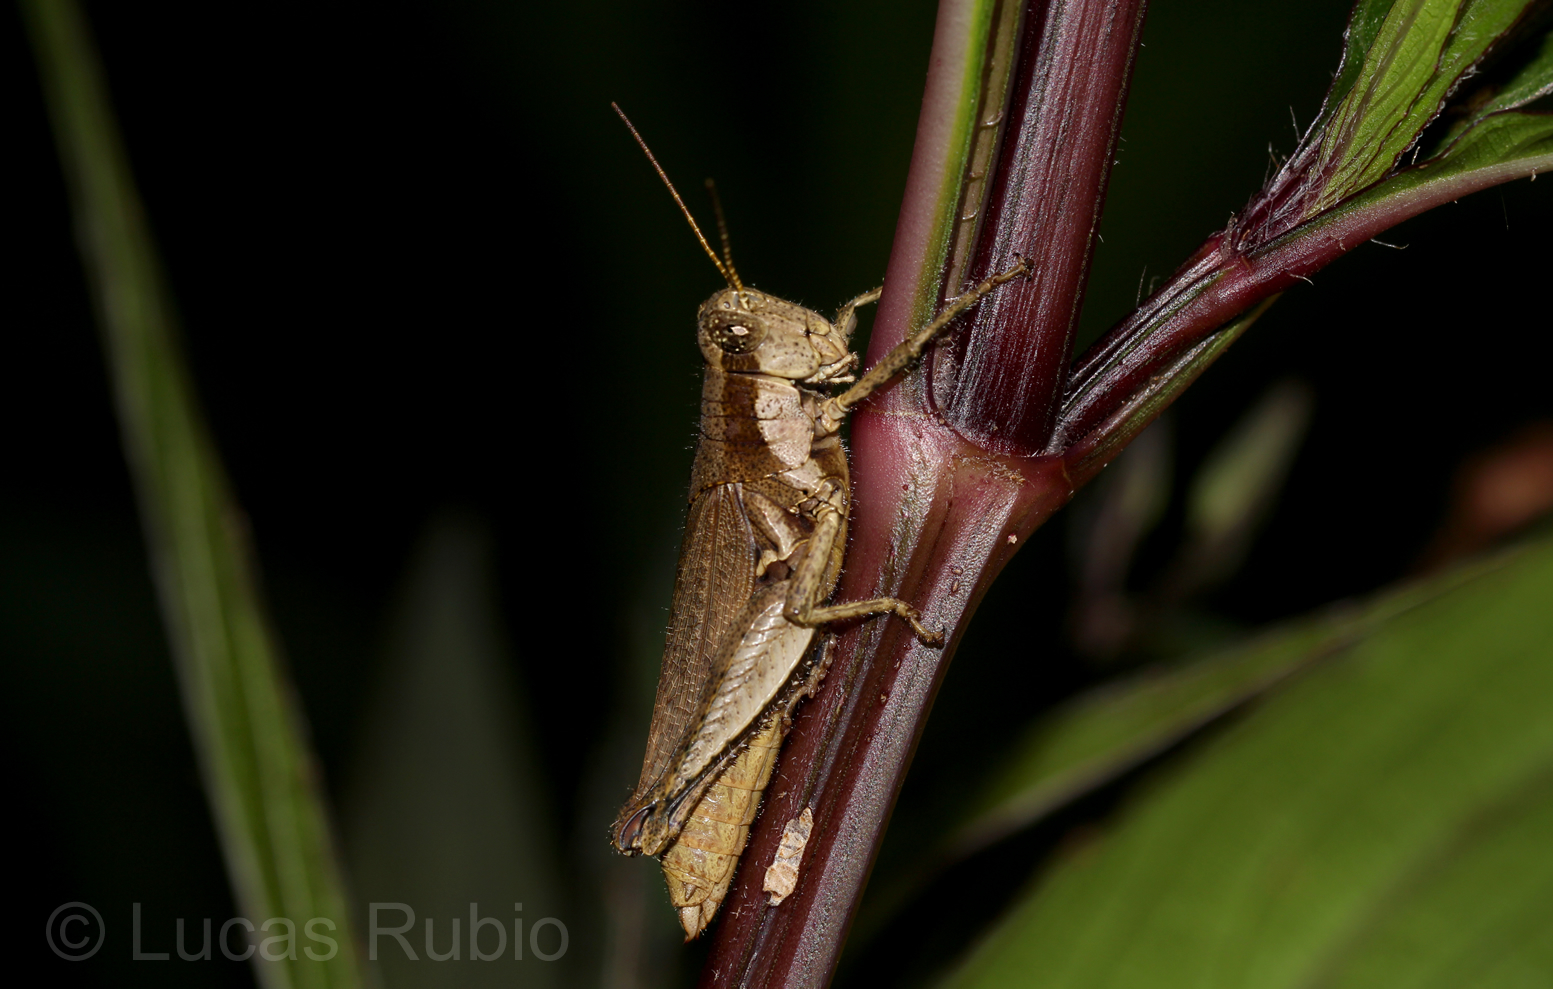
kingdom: Animalia
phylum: Arthropoda
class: Insecta
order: Orthoptera
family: Acrididae
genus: Ronderosia
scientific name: Ronderosia bergii
